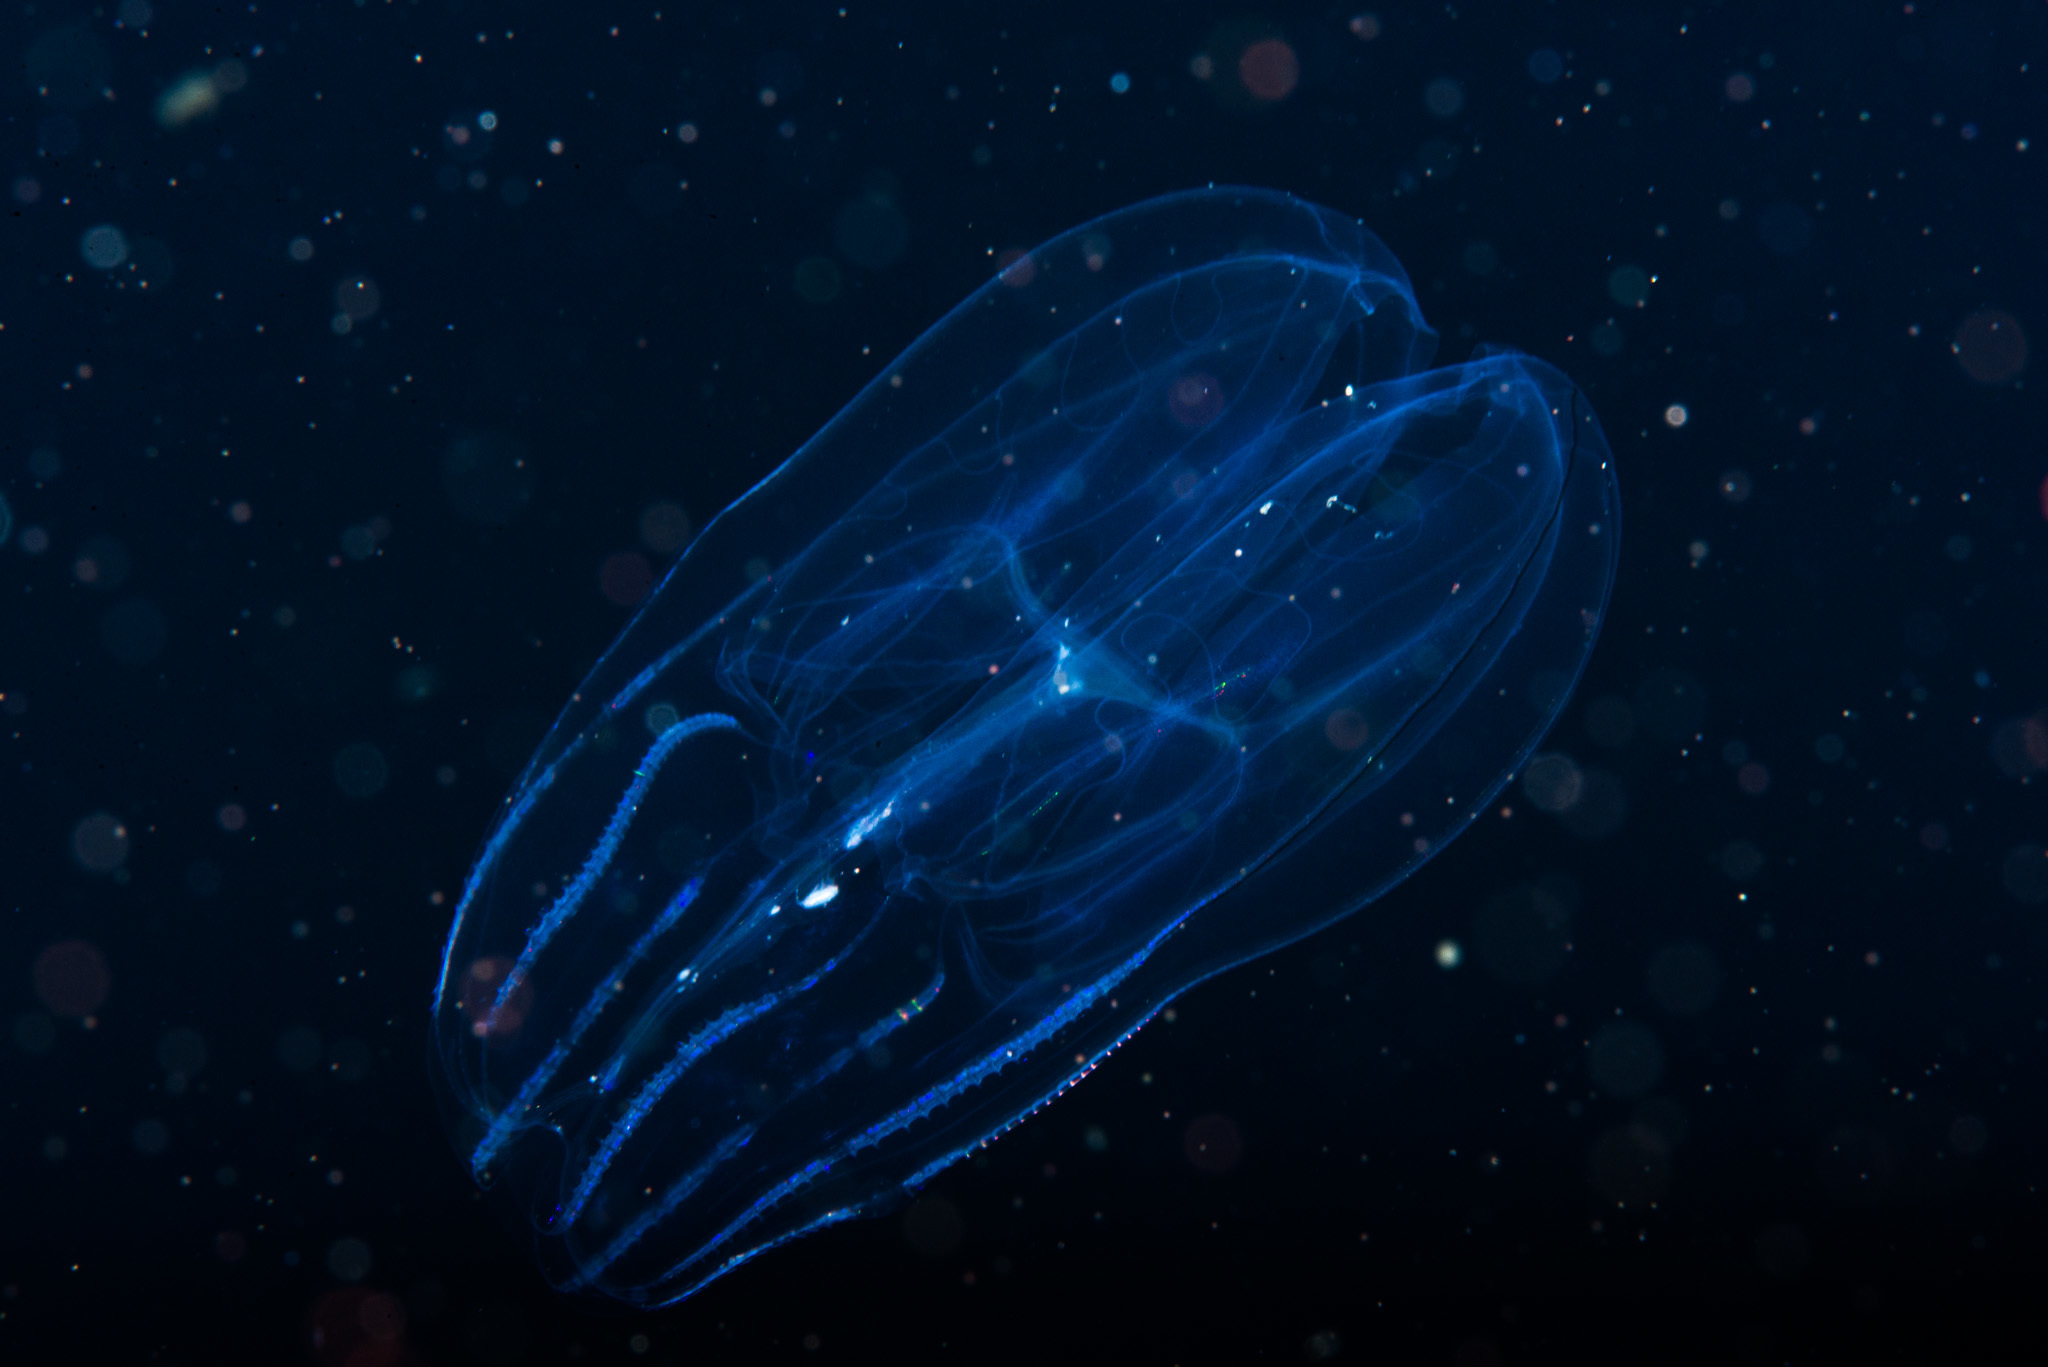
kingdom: Animalia
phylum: Ctenophora
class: Tentaculata
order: Lobata
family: Bolinopsidae
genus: Bolinopsis
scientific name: Bolinopsis infundibulum
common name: Common northern comb jelly
